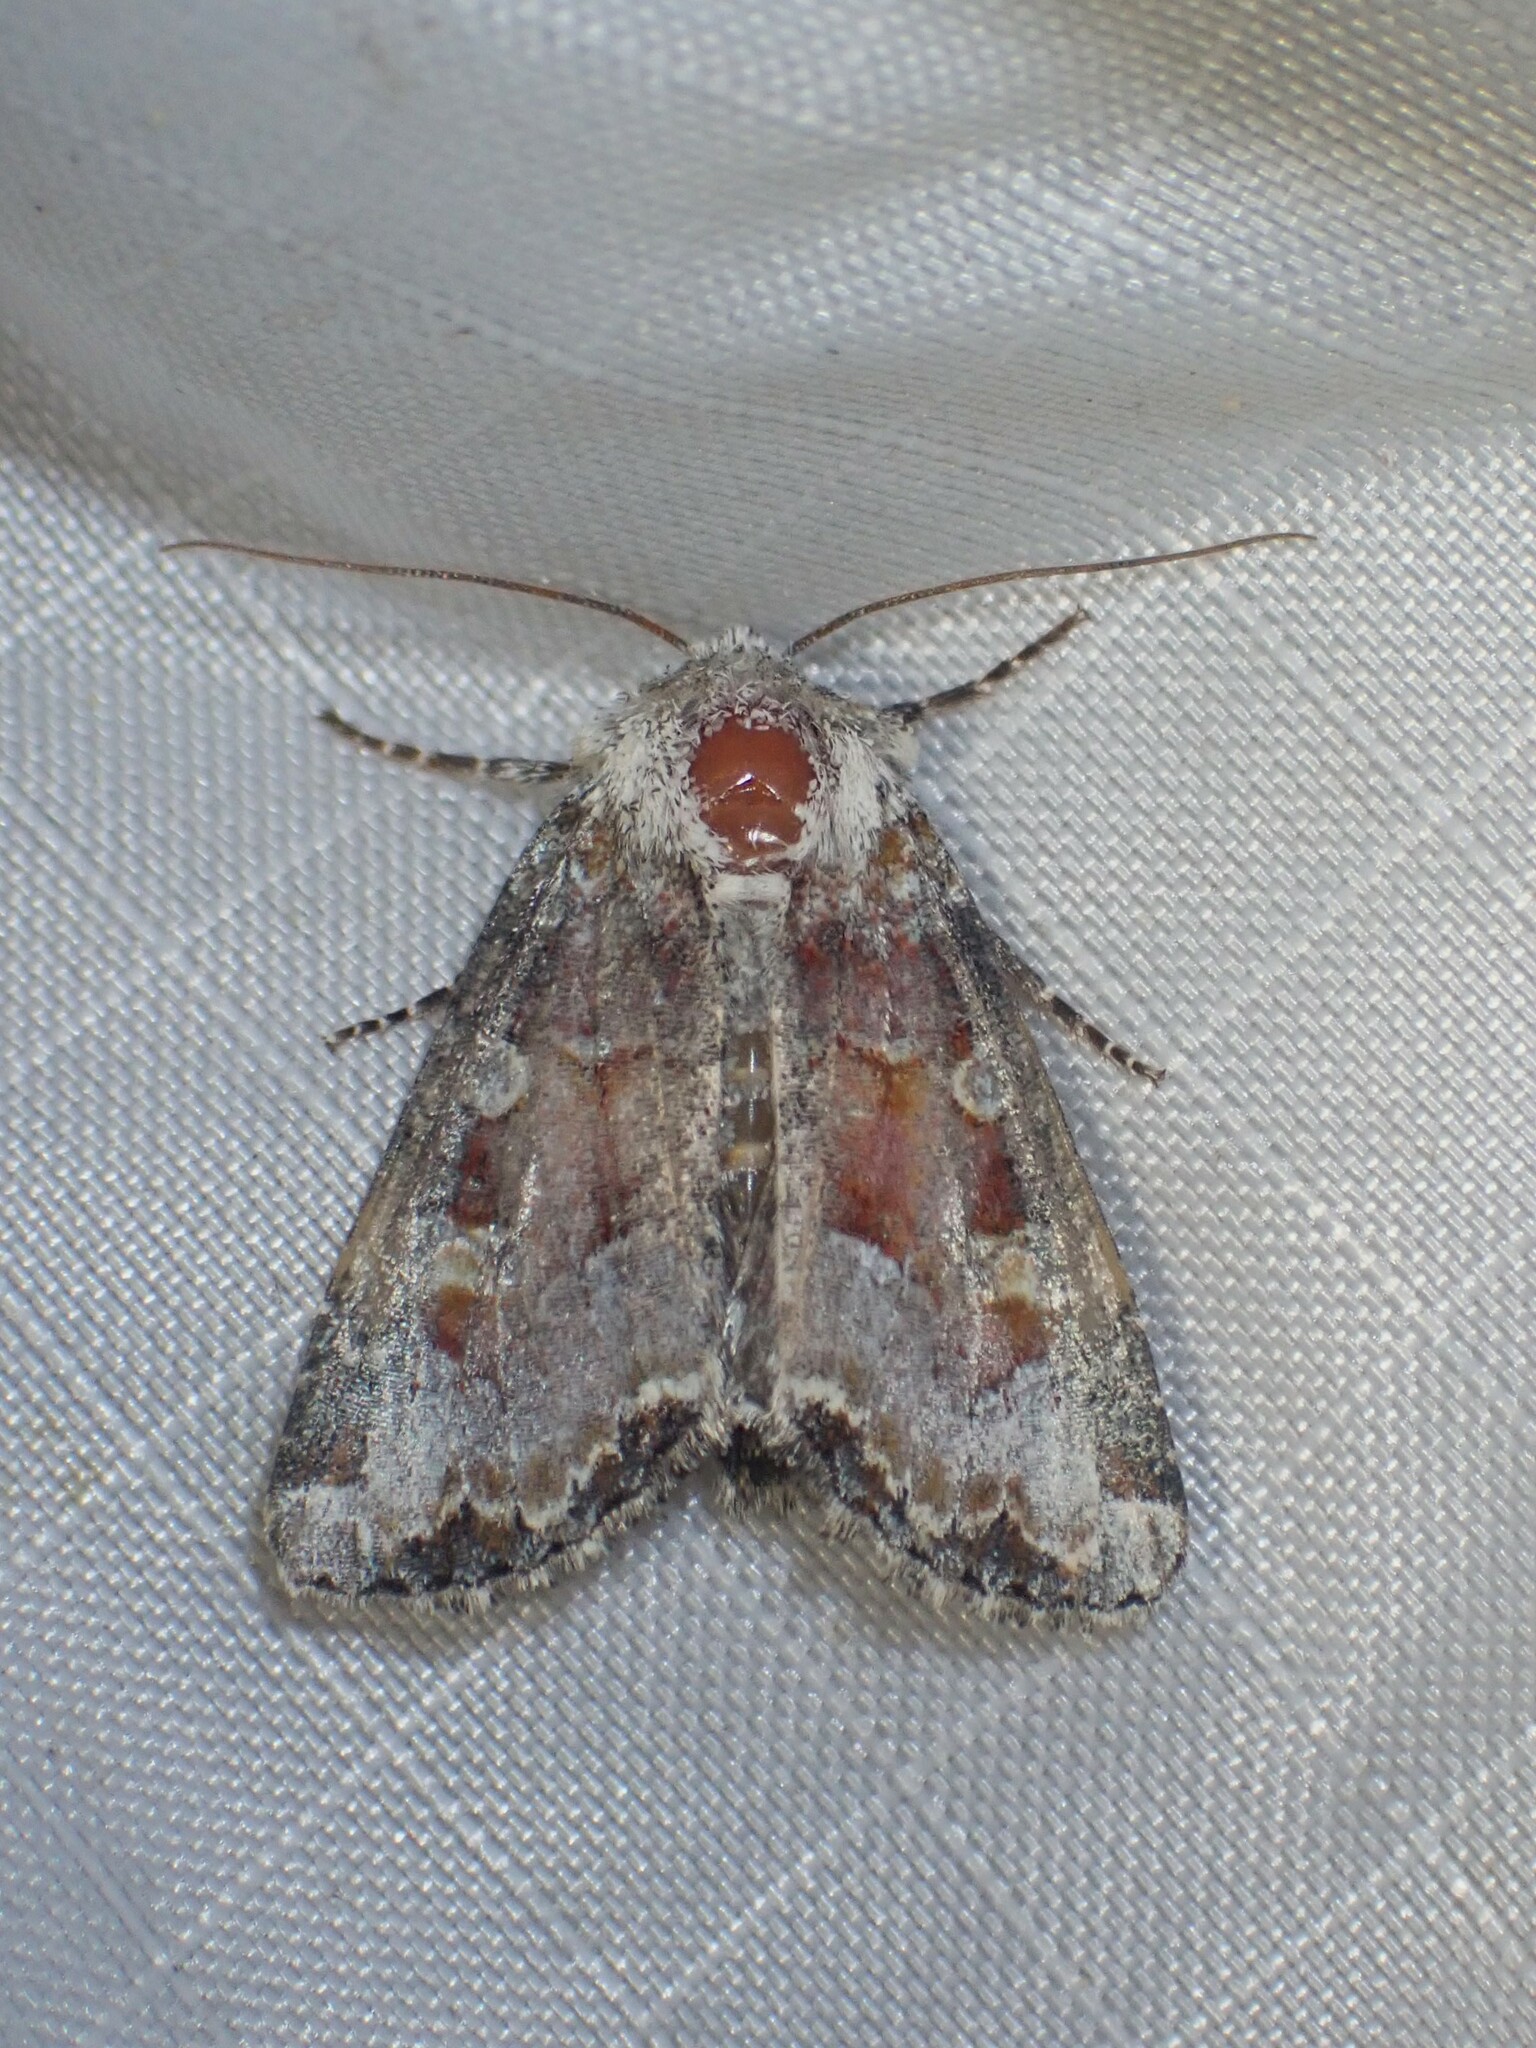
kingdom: Animalia
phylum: Arthropoda
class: Insecta
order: Lepidoptera
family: Noctuidae
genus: Oligia
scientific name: Oligia bridghamii
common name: Bridgham's brocade moth
